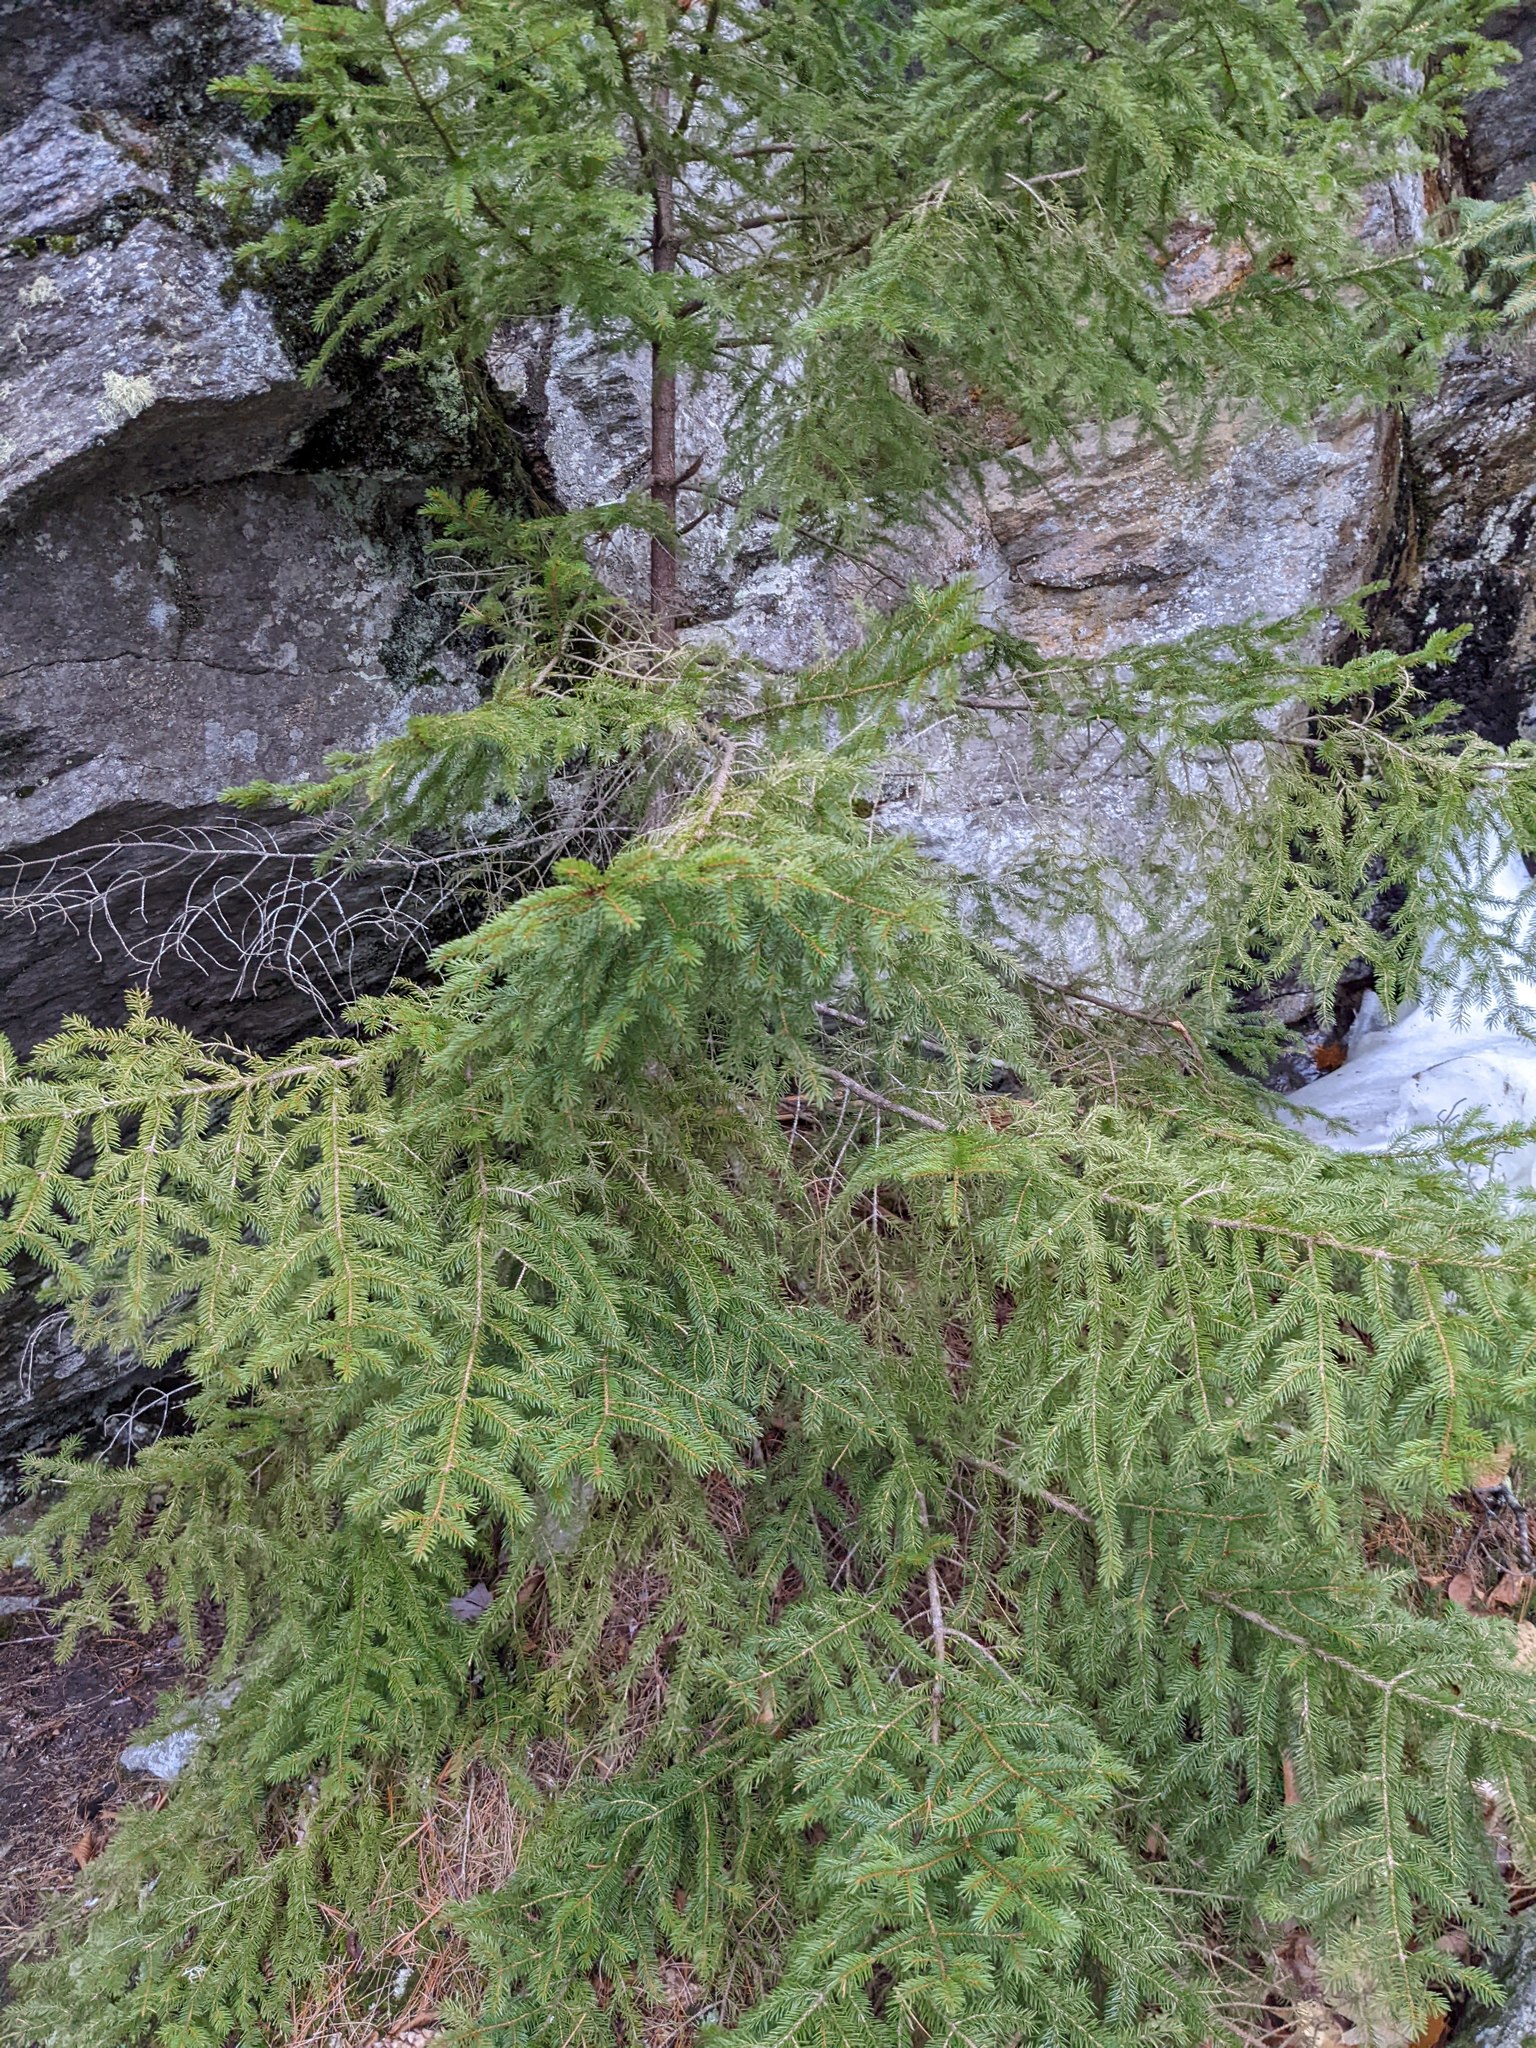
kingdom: Plantae
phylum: Tracheophyta
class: Pinopsida
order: Pinales
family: Pinaceae
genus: Picea
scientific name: Picea rubens
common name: Red spruce
